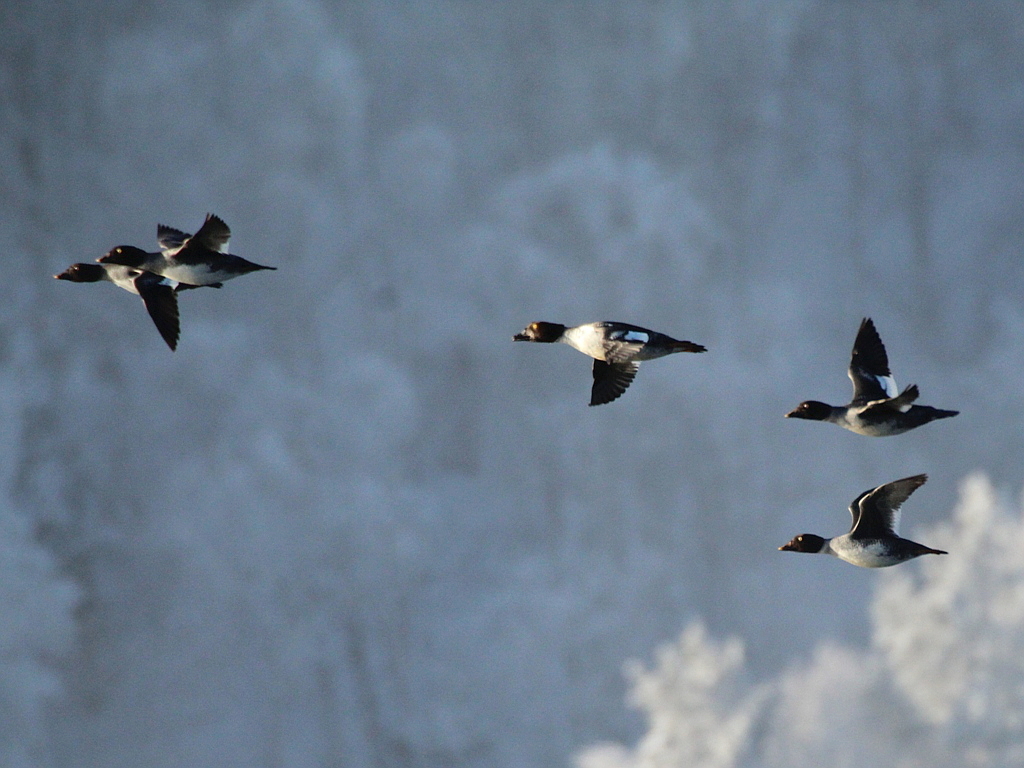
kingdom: Animalia
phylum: Chordata
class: Aves
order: Anseriformes
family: Anatidae
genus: Bucephala
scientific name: Bucephala clangula
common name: Common goldeneye
